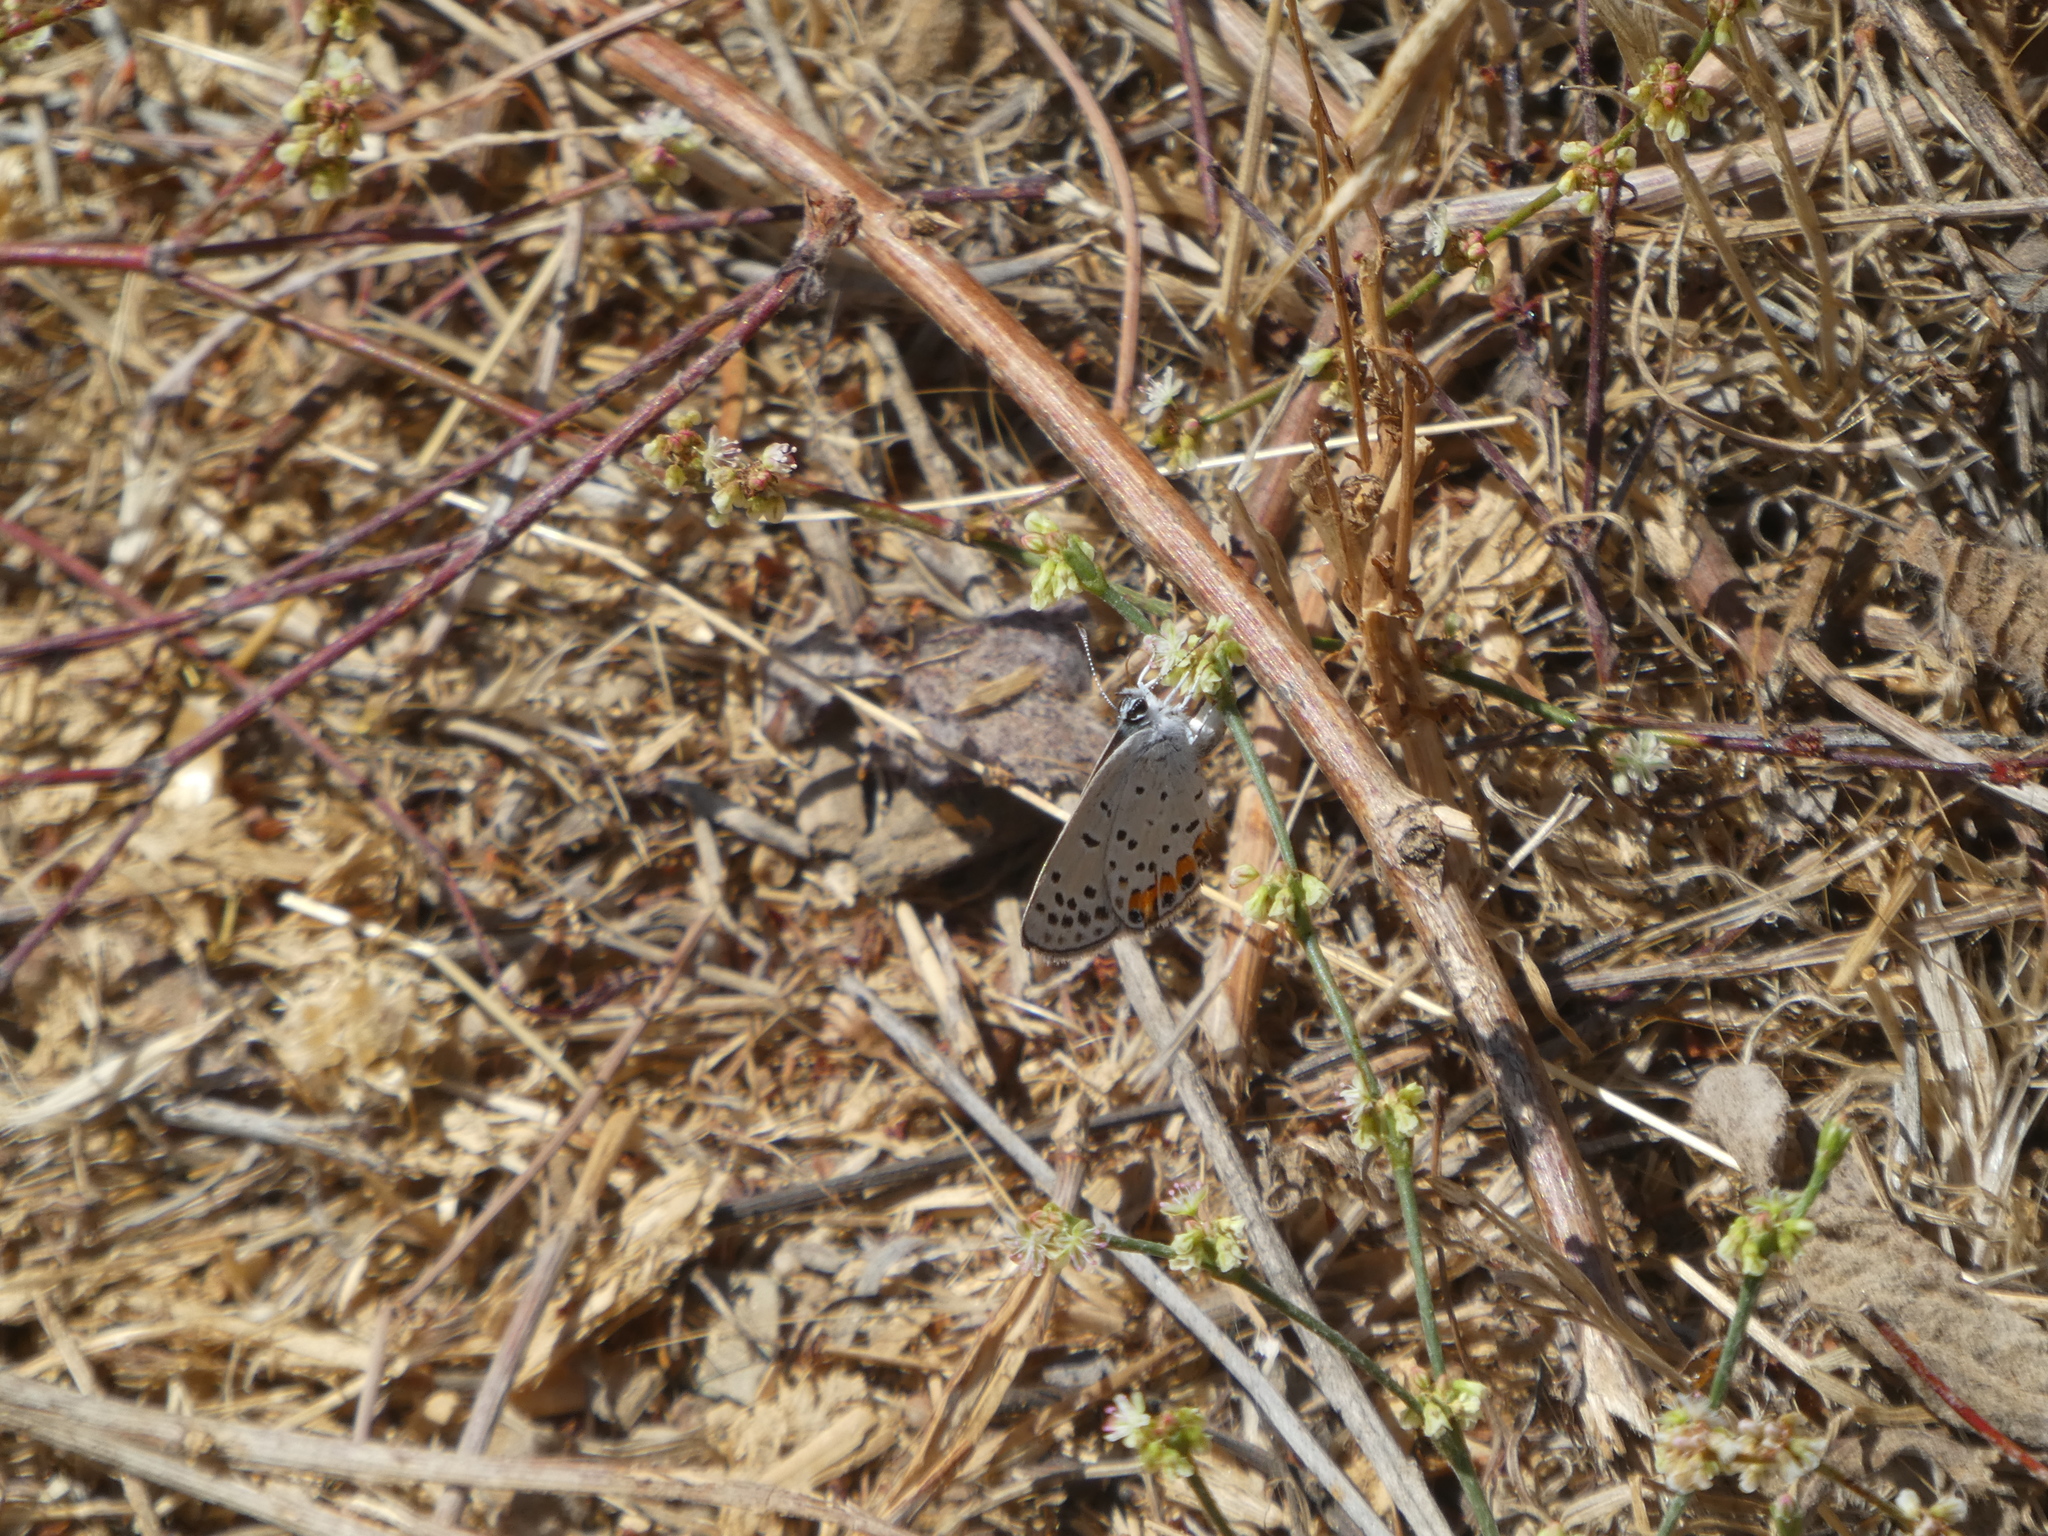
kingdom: Animalia
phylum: Arthropoda
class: Insecta
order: Lepidoptera
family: Lycaenidae
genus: Icaricia
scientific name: Icaricia acmon
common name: Acmon blue
